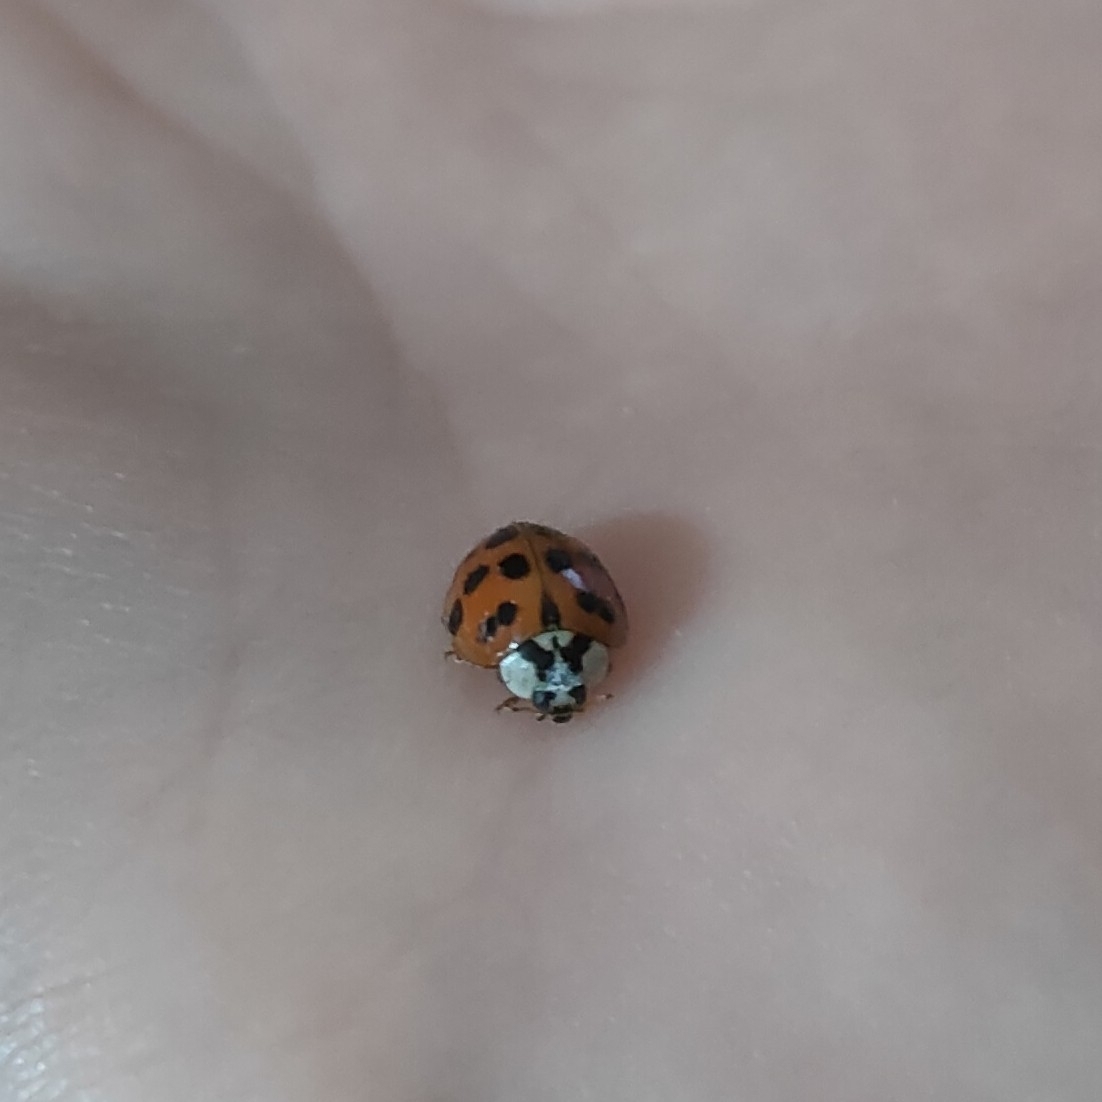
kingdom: Animalia
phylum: Arthropoda
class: Insecta
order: Coleoptera
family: Coccinellidae
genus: Harmonia
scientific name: Harmonia axyridis
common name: Harlequin ladybird
